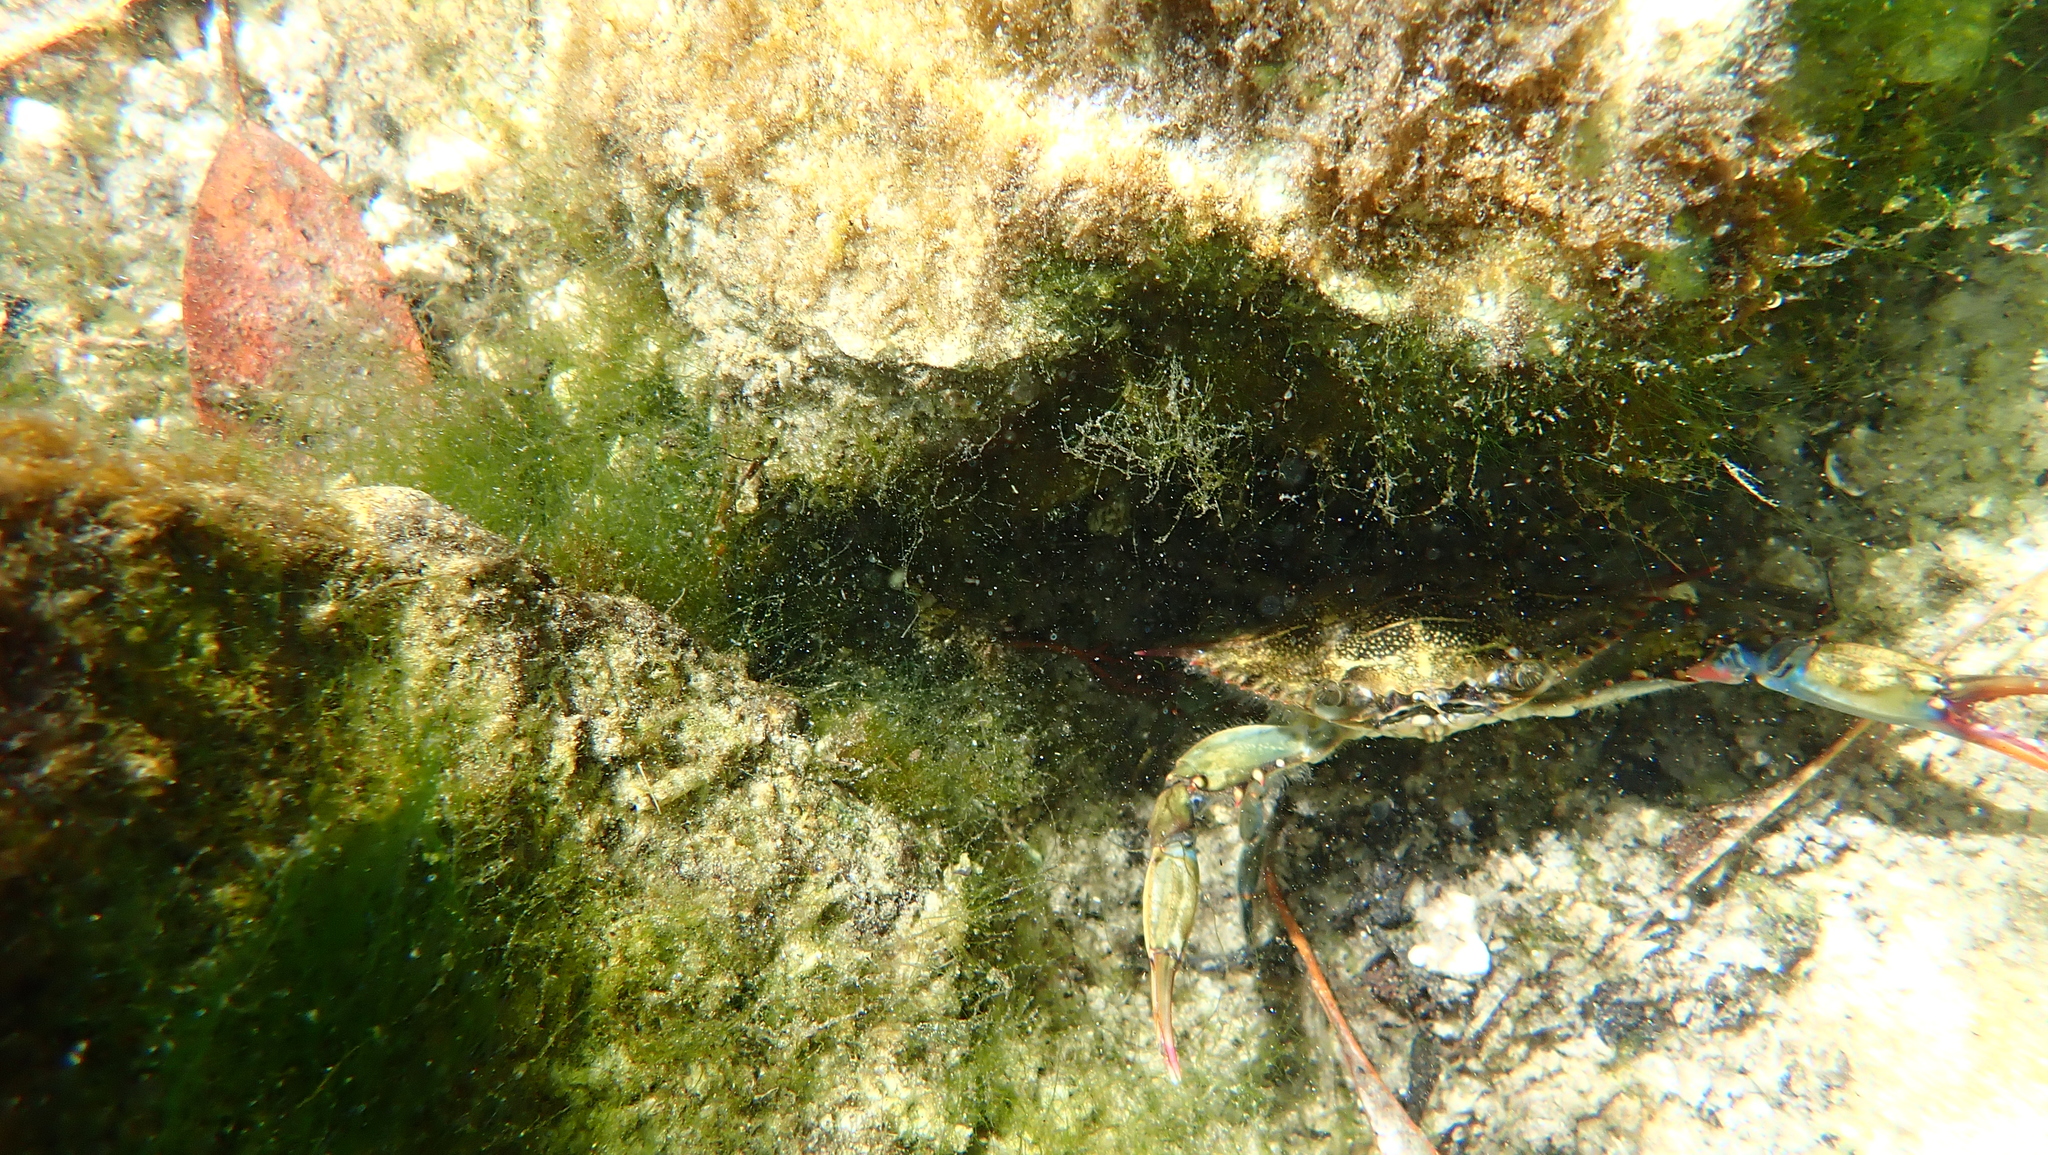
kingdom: Animalia
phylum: Arthropoda
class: Malacostraca
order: Decapoda
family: Portunidae
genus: Callinectes
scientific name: Callinectes sapidus
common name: Blue crab
